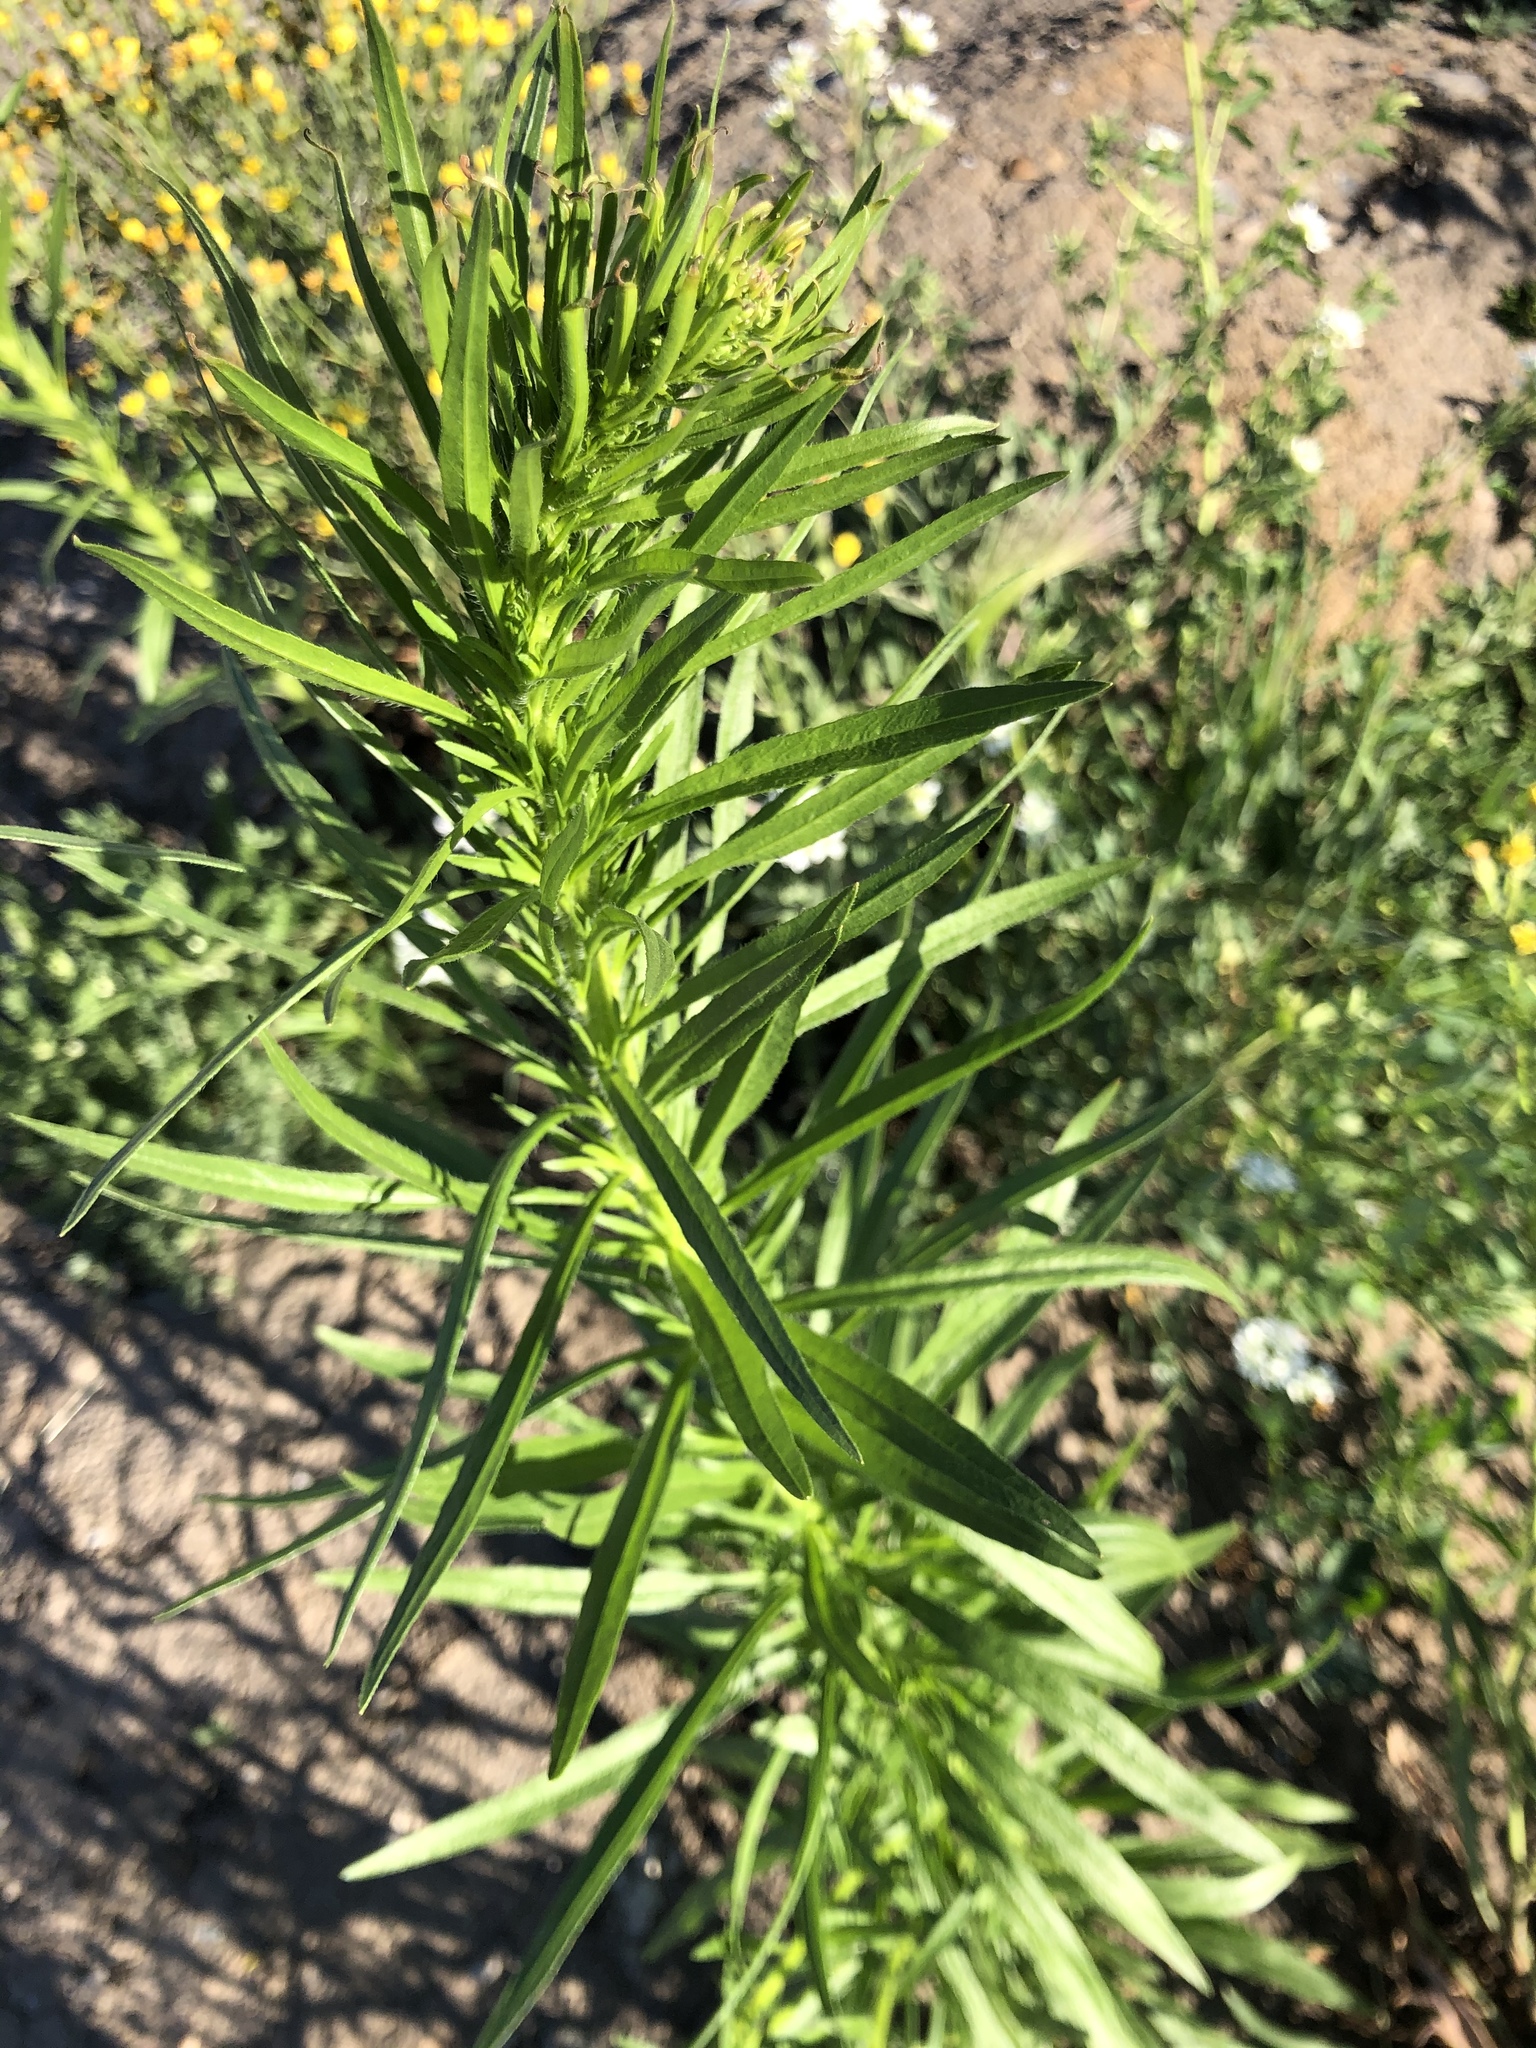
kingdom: Plantae
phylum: Tracheophyta
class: Magnoliopsida
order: Asterales
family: Asteraceae
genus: Erigeron
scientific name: Erigeron canadensis
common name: Canadian fleabane
